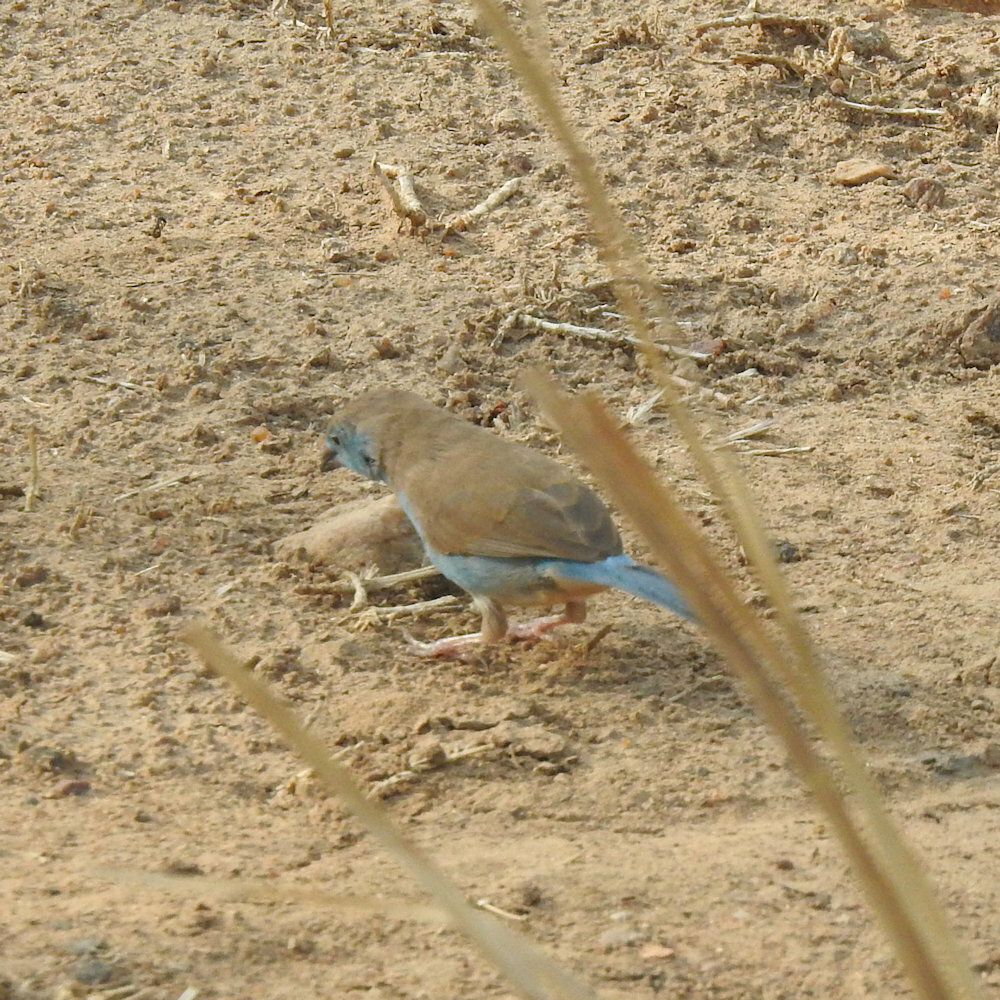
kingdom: Animalia
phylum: Chordata
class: Aves
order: Passeriformes
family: Estrildidae
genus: Uraeginthus
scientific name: Uraeginthus angolensis
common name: Blue waxbill
